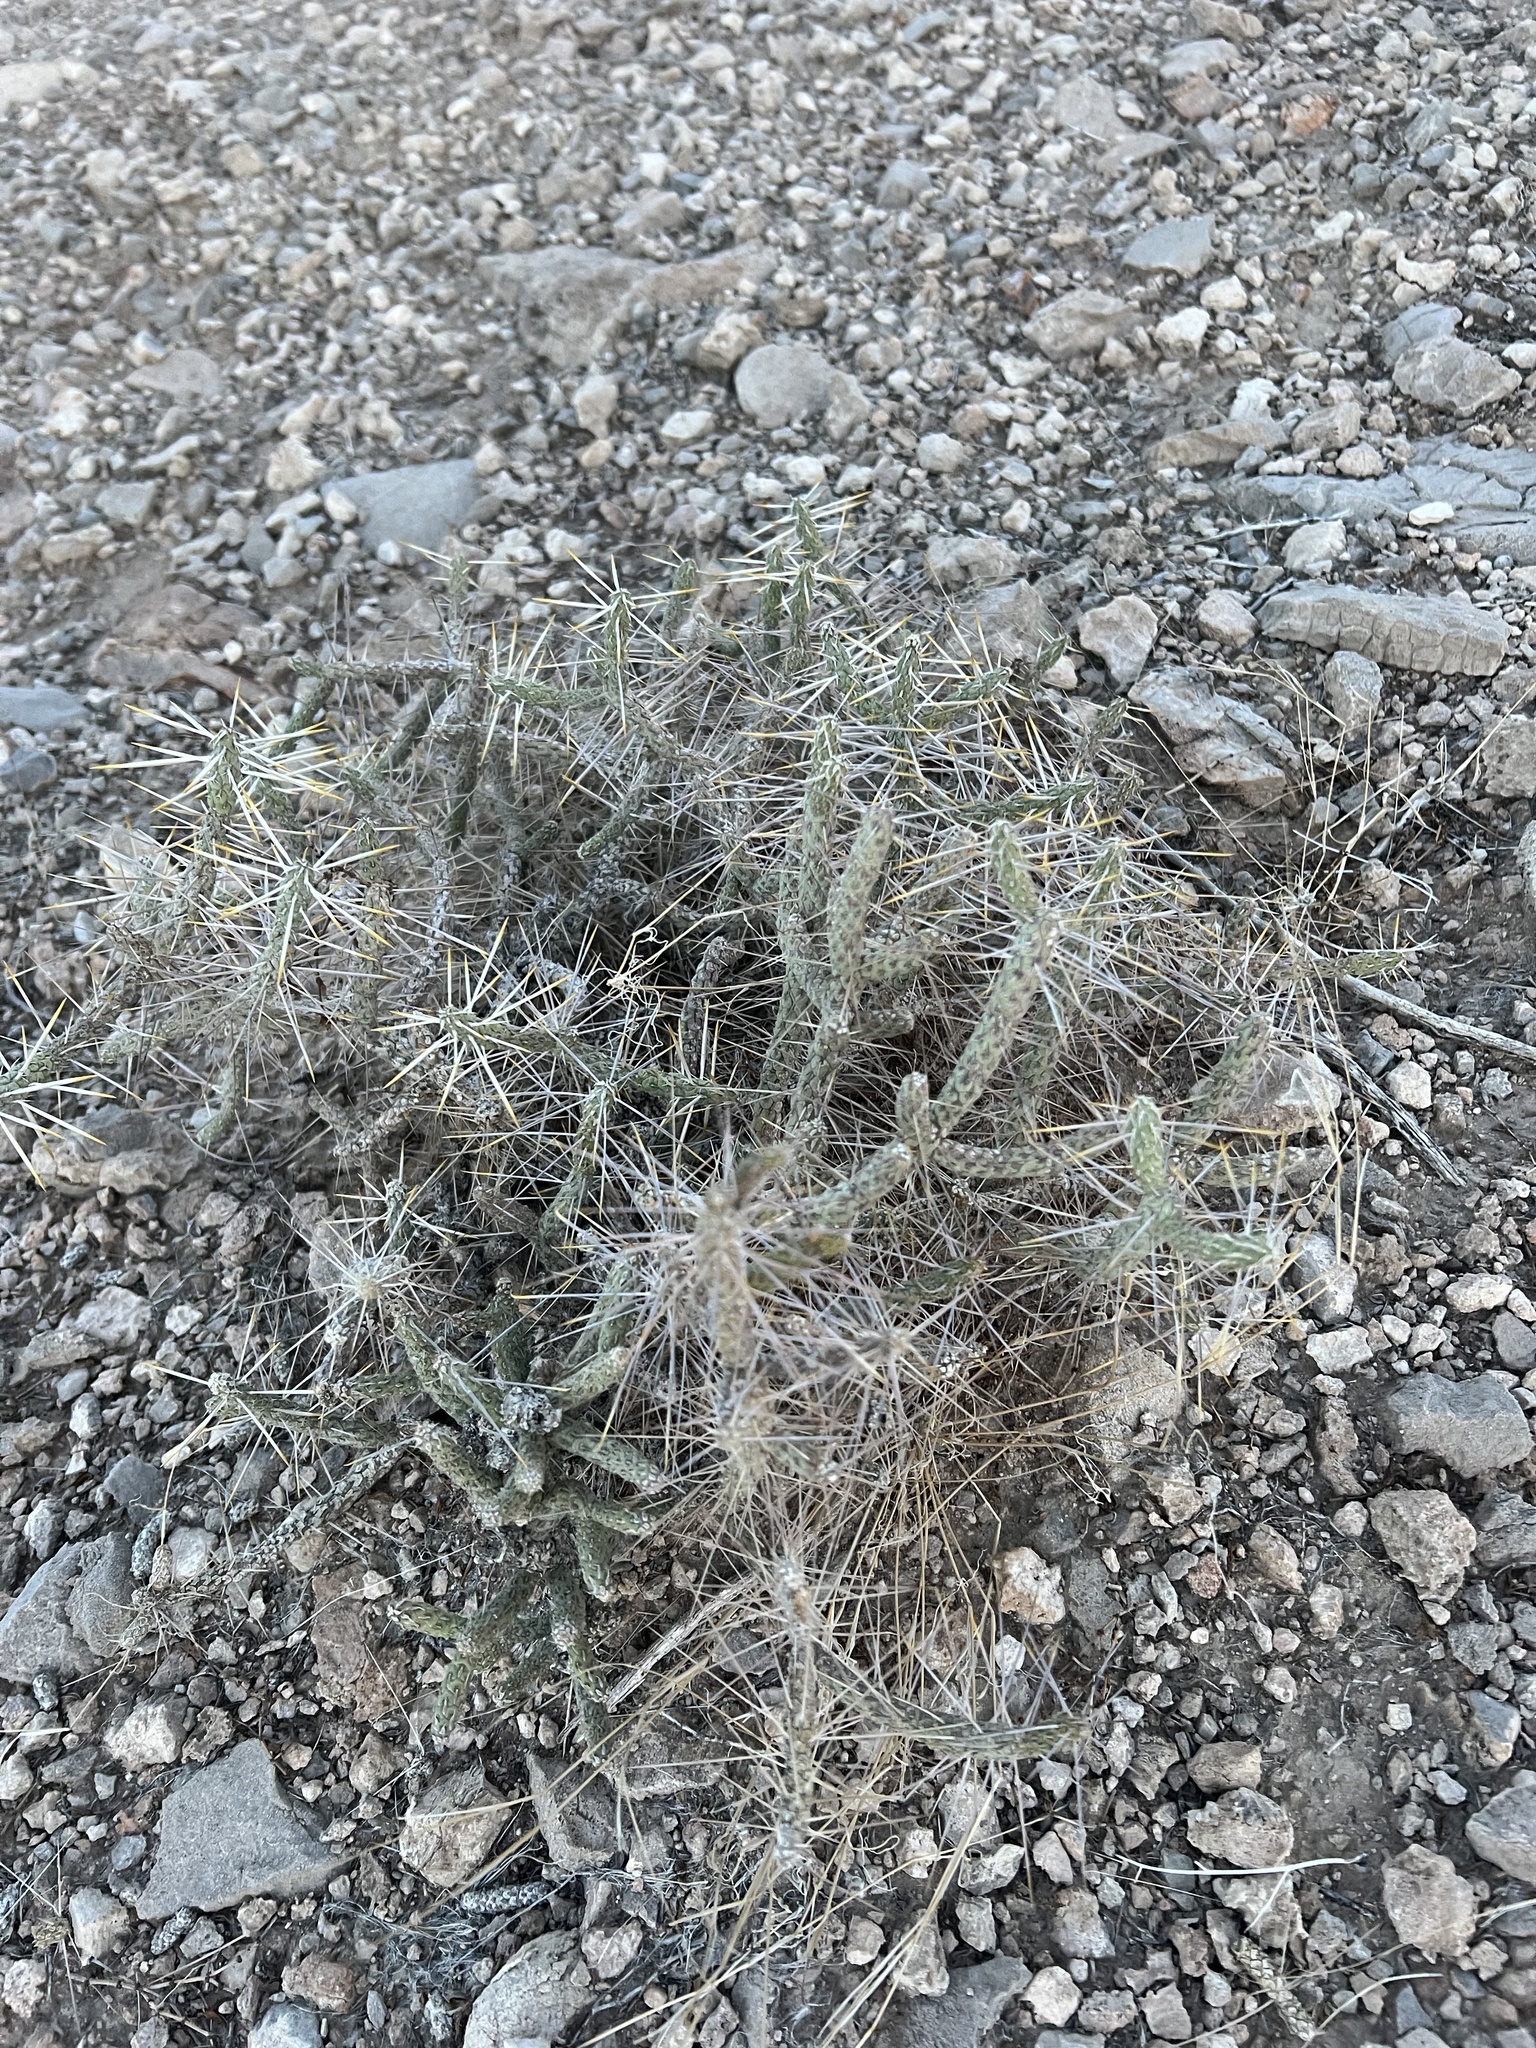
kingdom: Plantae
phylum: Tracheophyta
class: Magnoliopsida
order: Caryophyllales
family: Cactaceae
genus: Cylindropuntia
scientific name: Cylindropuntia ramosissima
